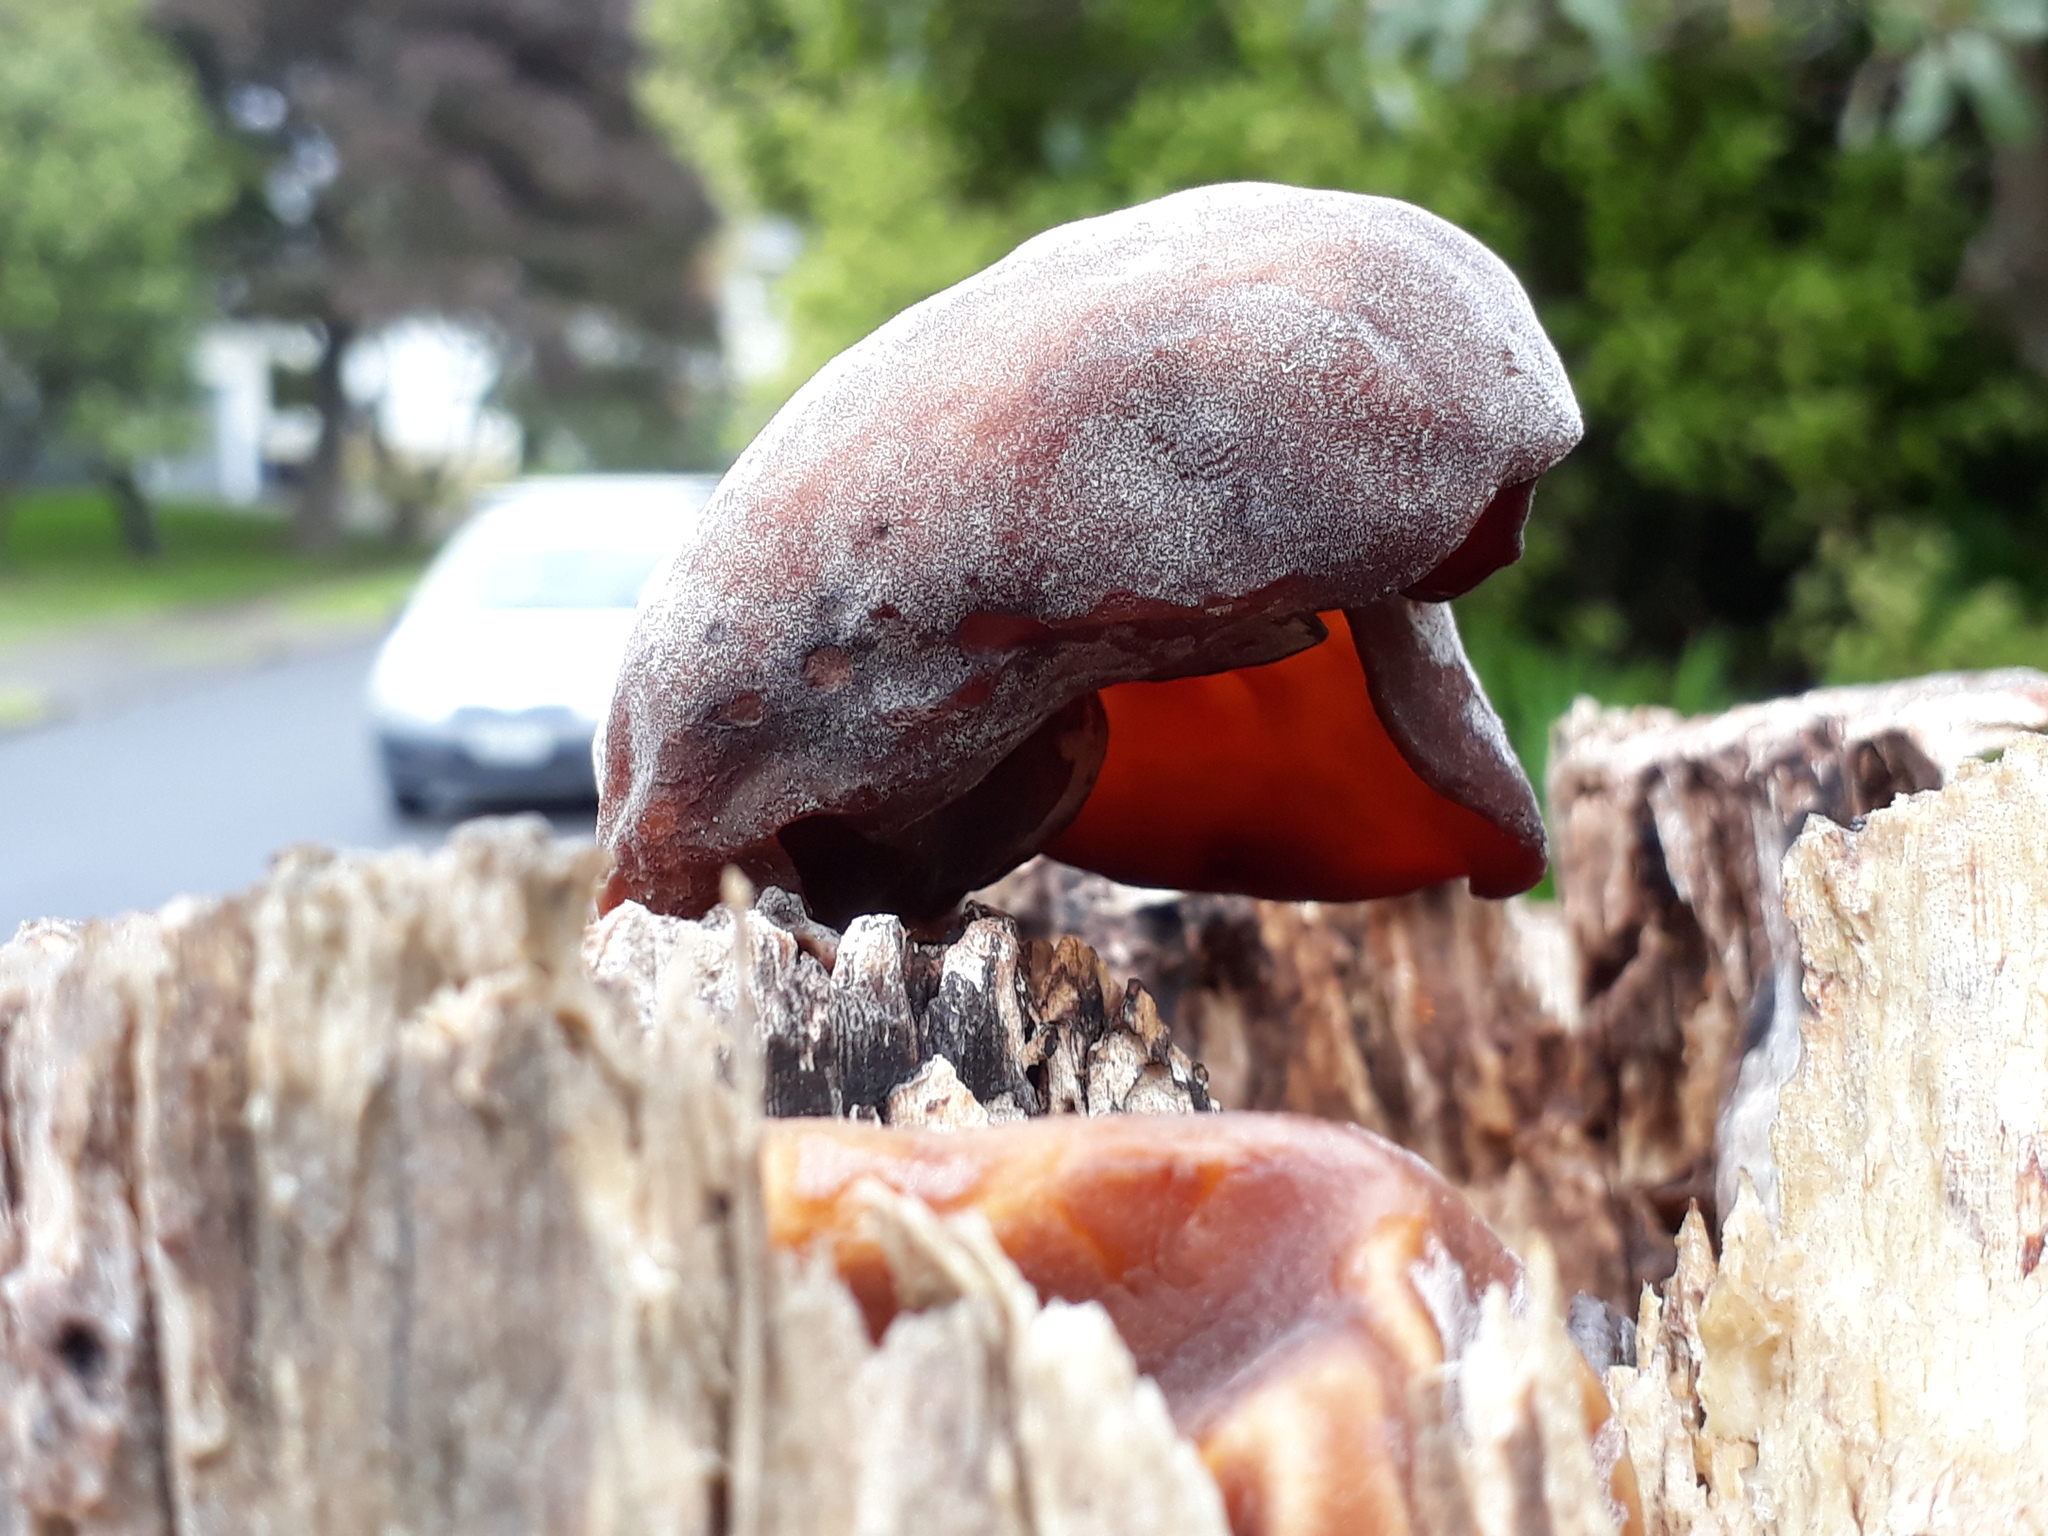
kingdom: Fungi
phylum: Basidiomycota
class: Agaricomycetes
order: Auriculariales
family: Auriculariaceae
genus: Auricularia
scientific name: Auricularia cornea
